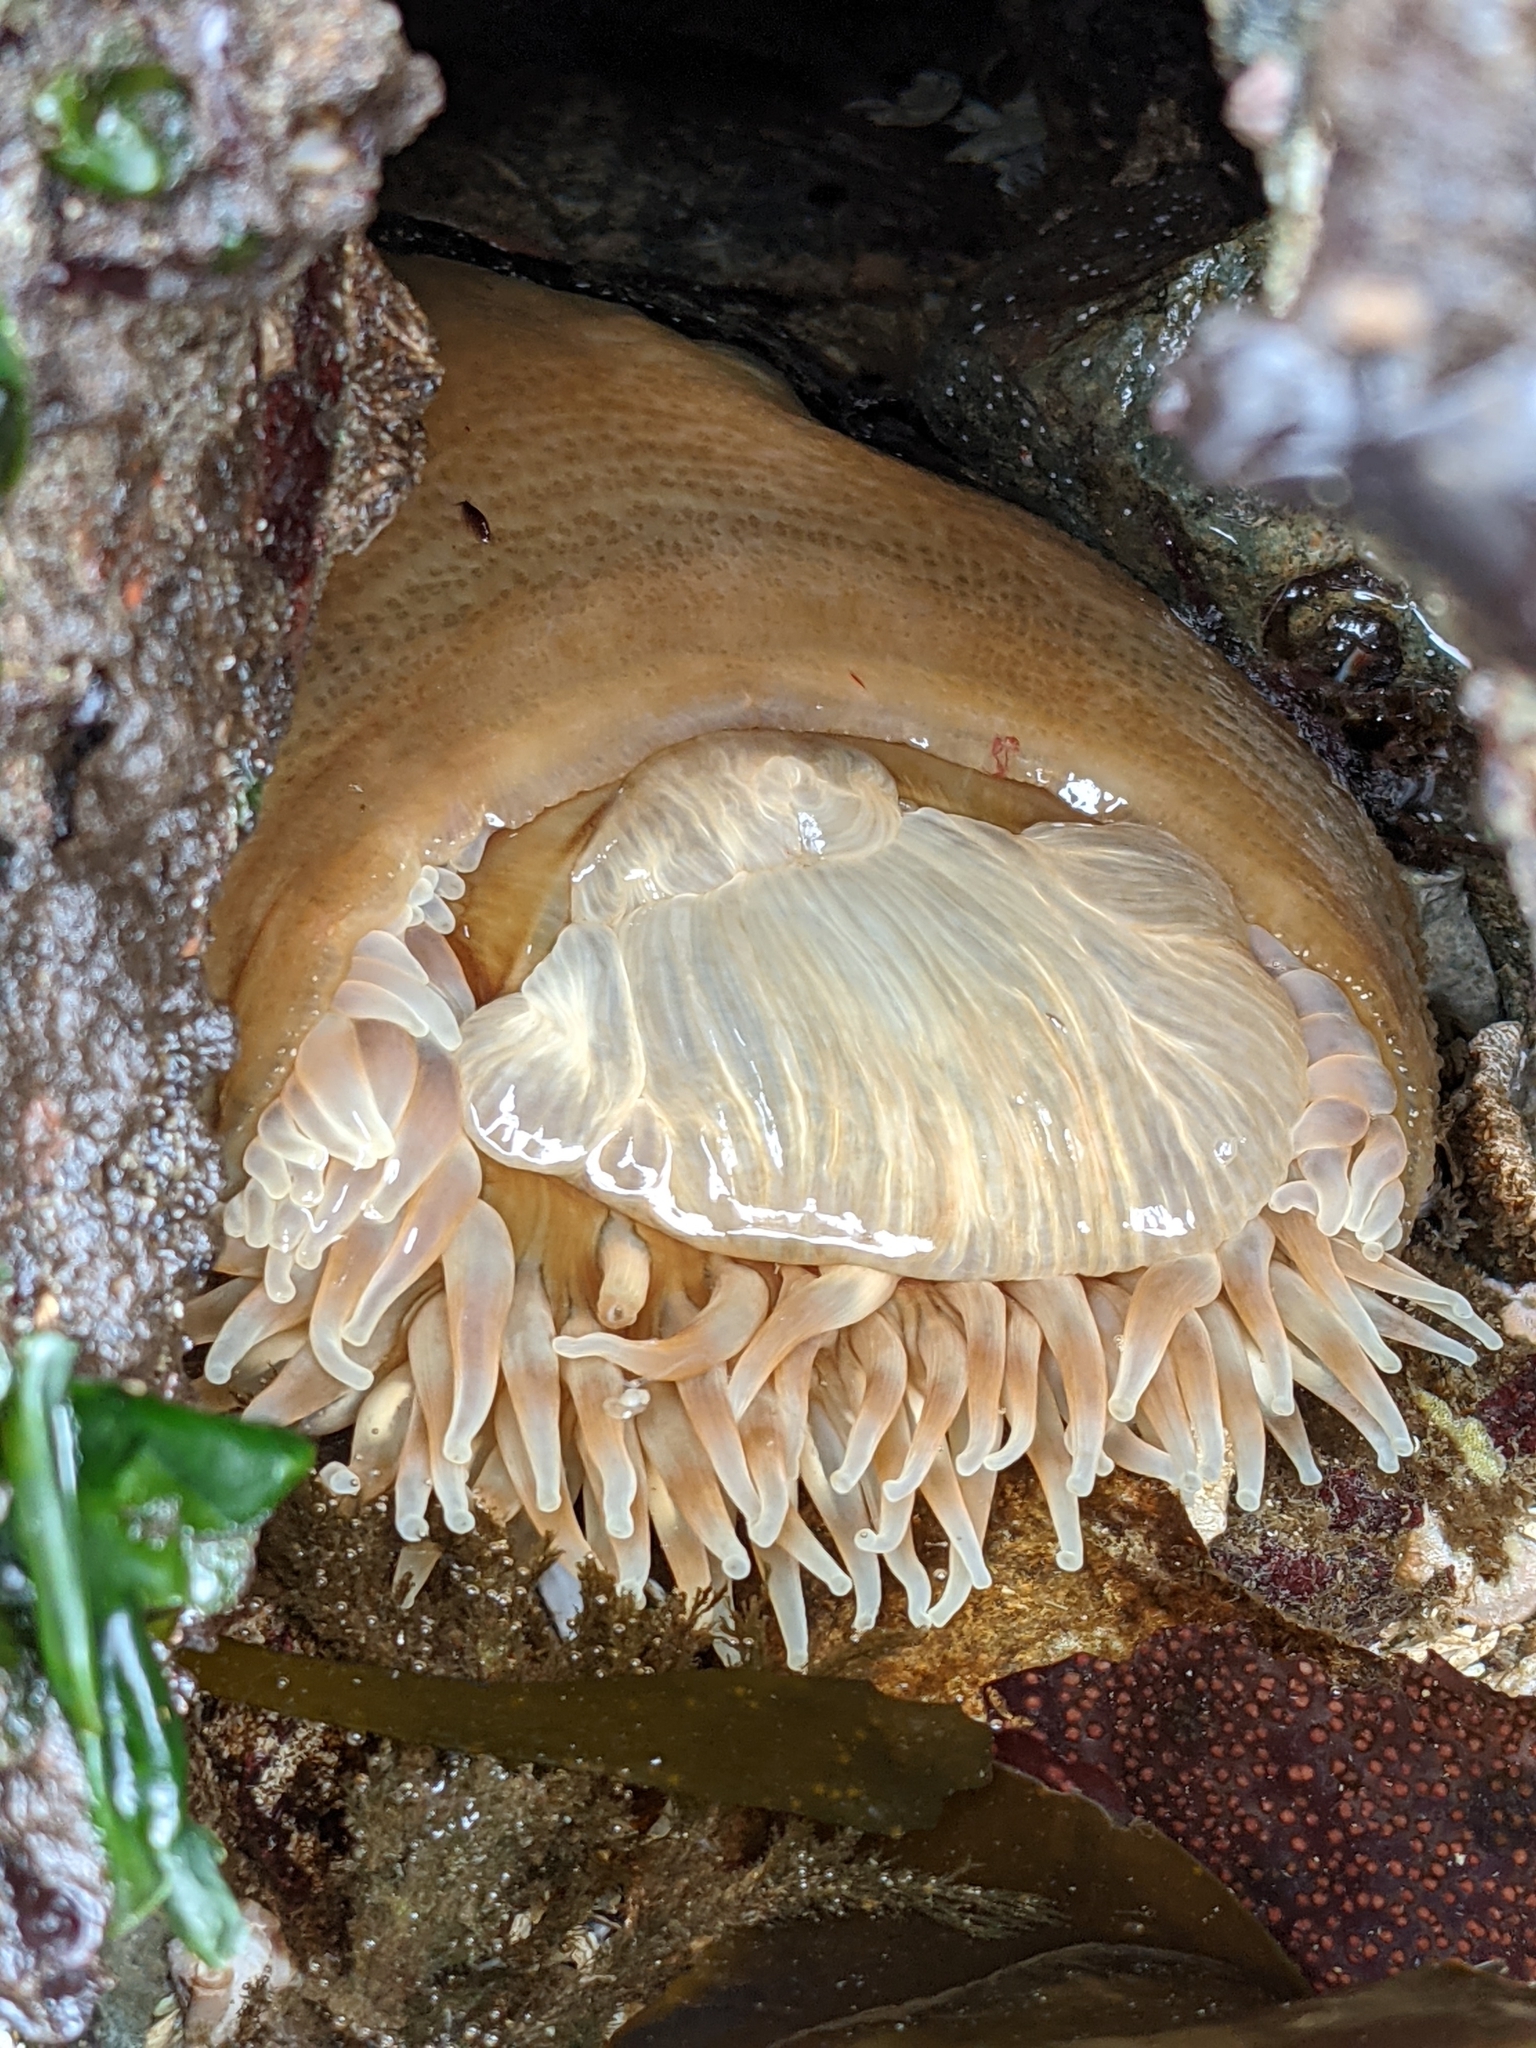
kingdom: Animalia
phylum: Cnidaria
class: Anthozoa
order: Actiniaria
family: Actiniidae
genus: Urticina
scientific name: Urticina grebelnyi
